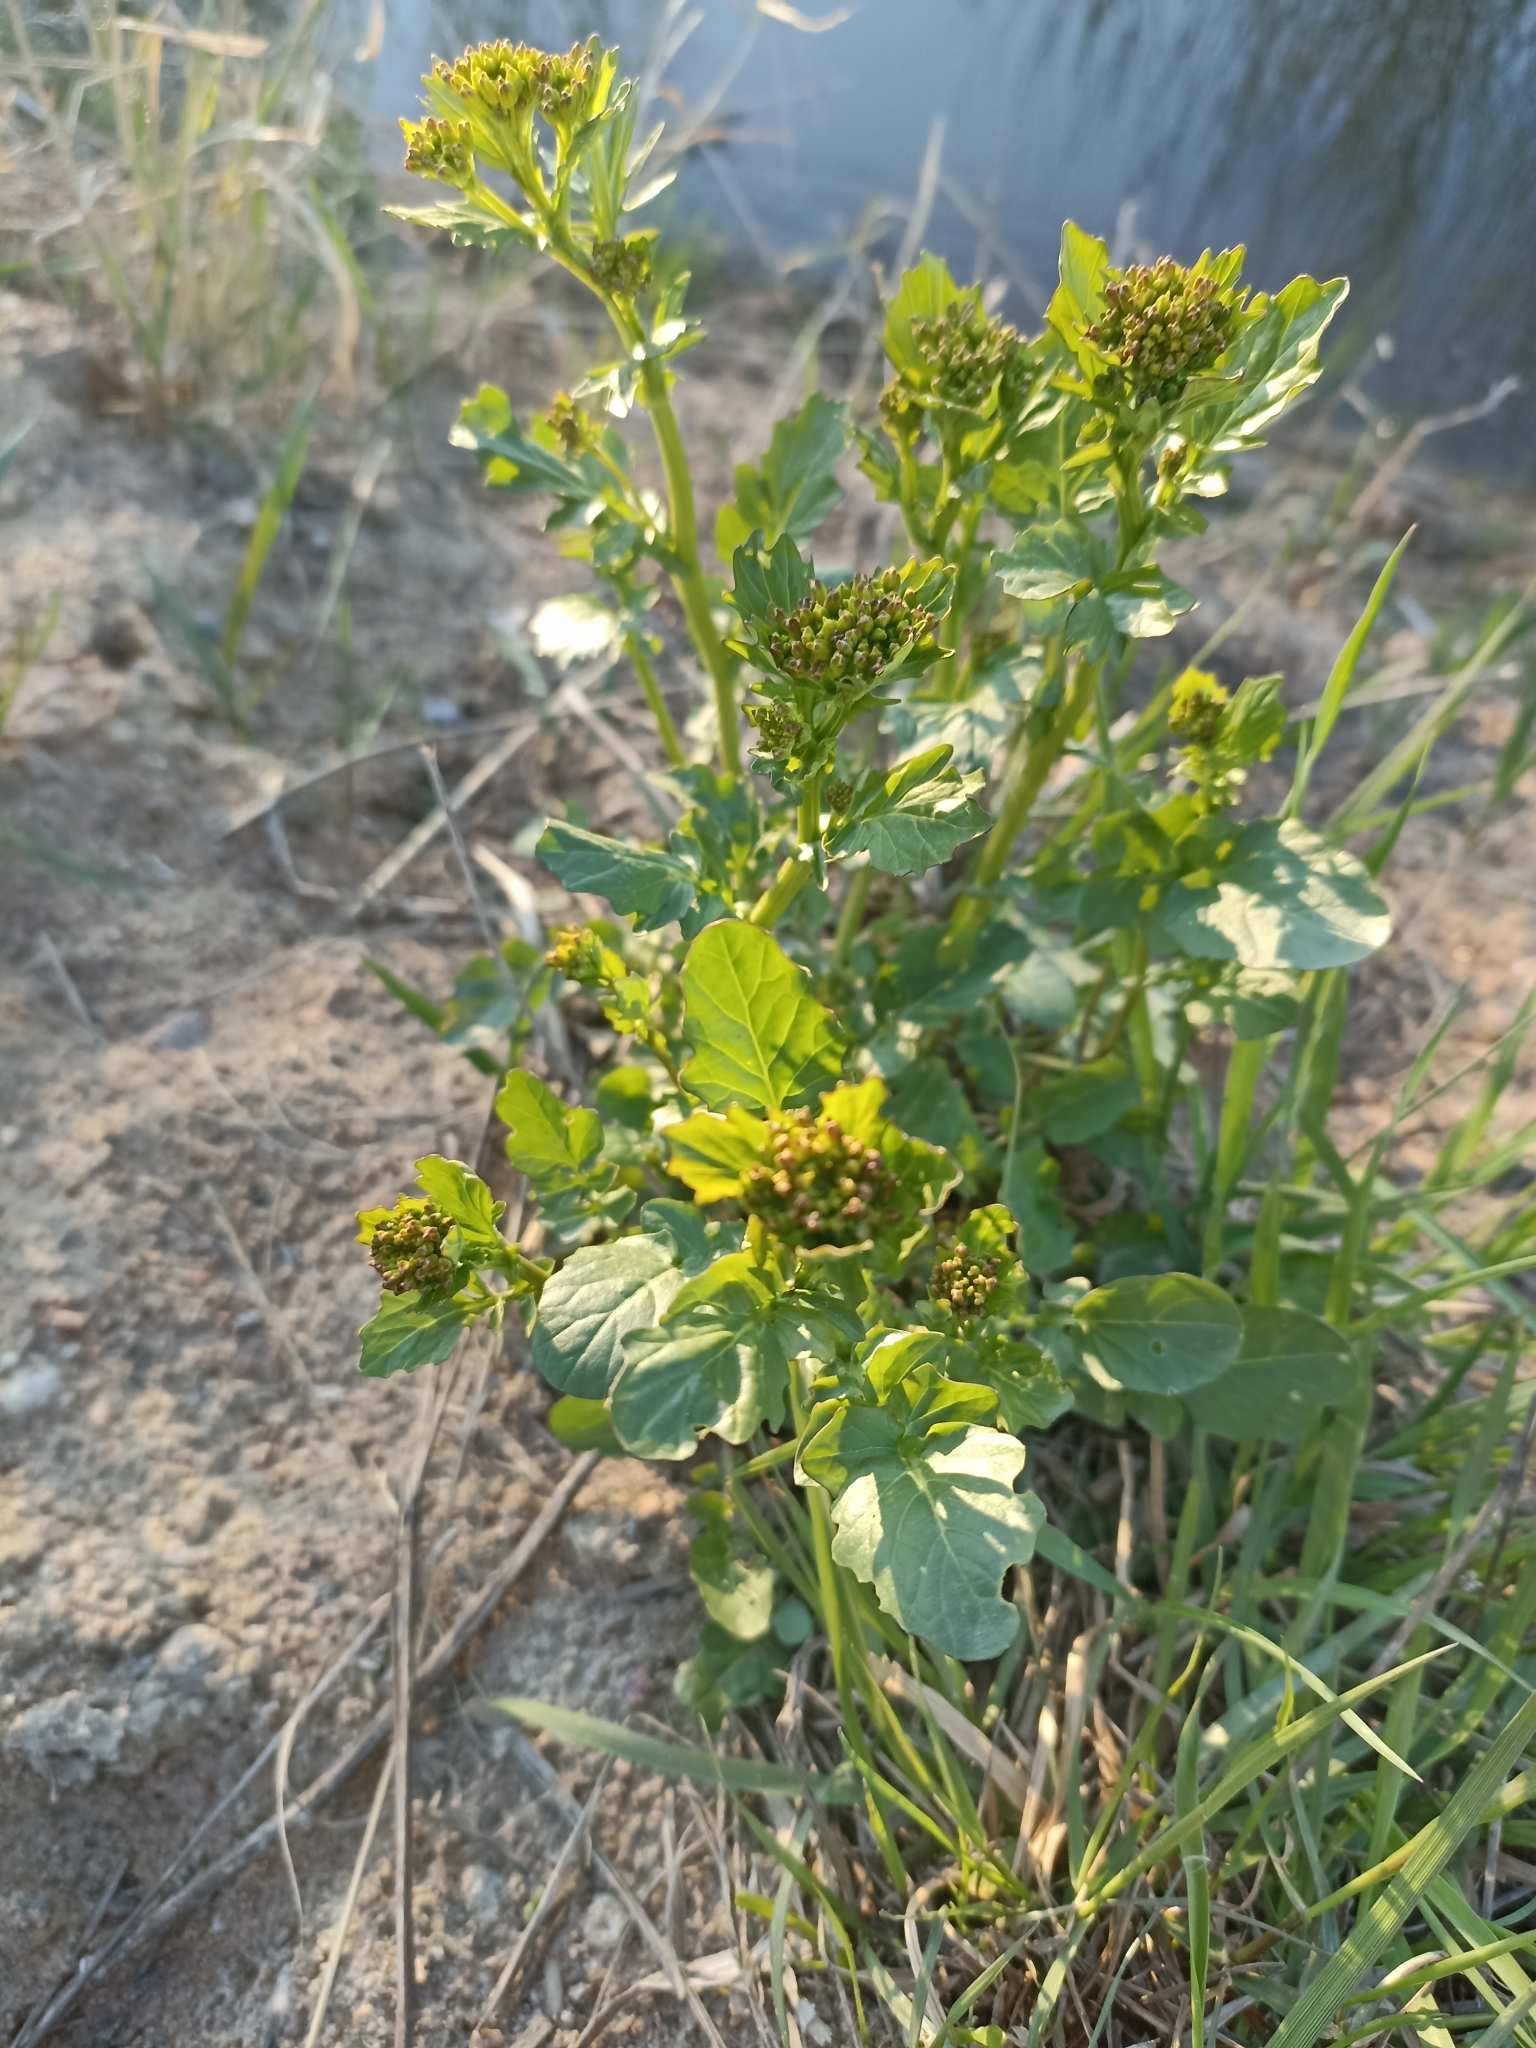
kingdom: Plantae
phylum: Tracheophyta
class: Magnoliopsida
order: Brassicales
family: Brassicaceae
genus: Barbarea
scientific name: Barbarea vulgaris
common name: Cressy-greens
